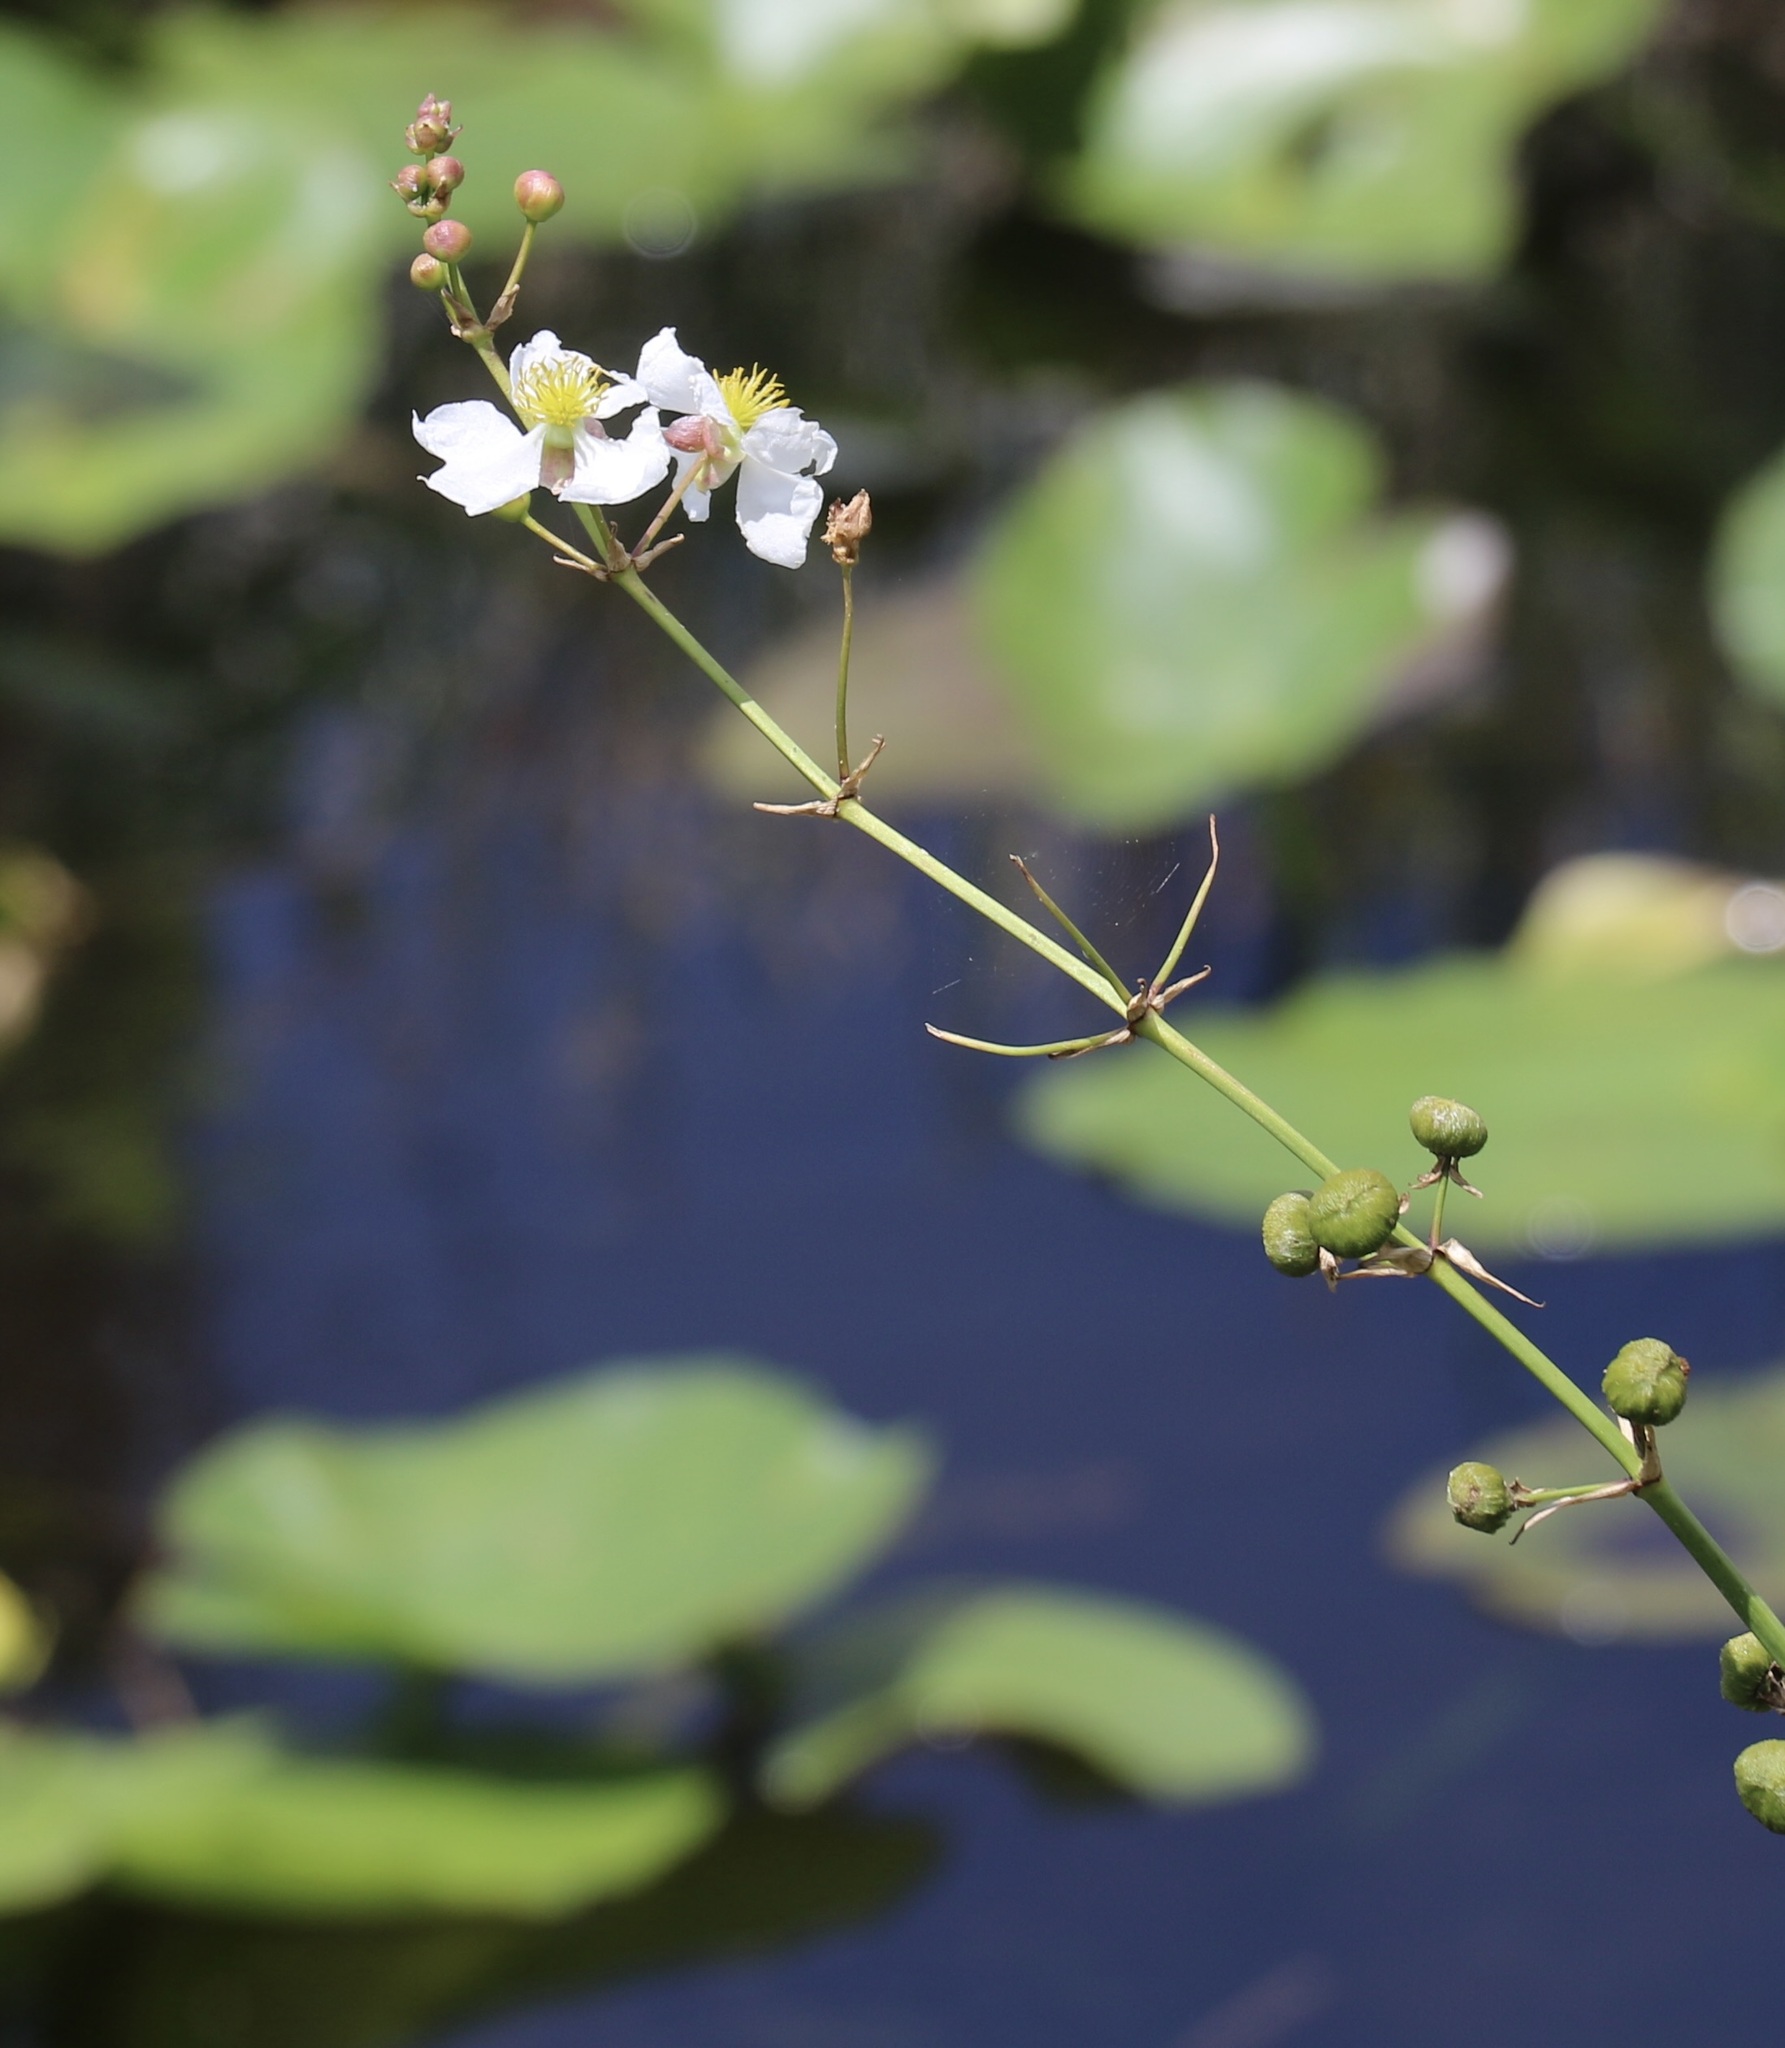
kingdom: Plantae
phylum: Tracheophyta
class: Liliopsida
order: Alismatales
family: Alismataceae
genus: Sagittaria
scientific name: Sagittaria lancifolia
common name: Lance-leaf arrowhead
